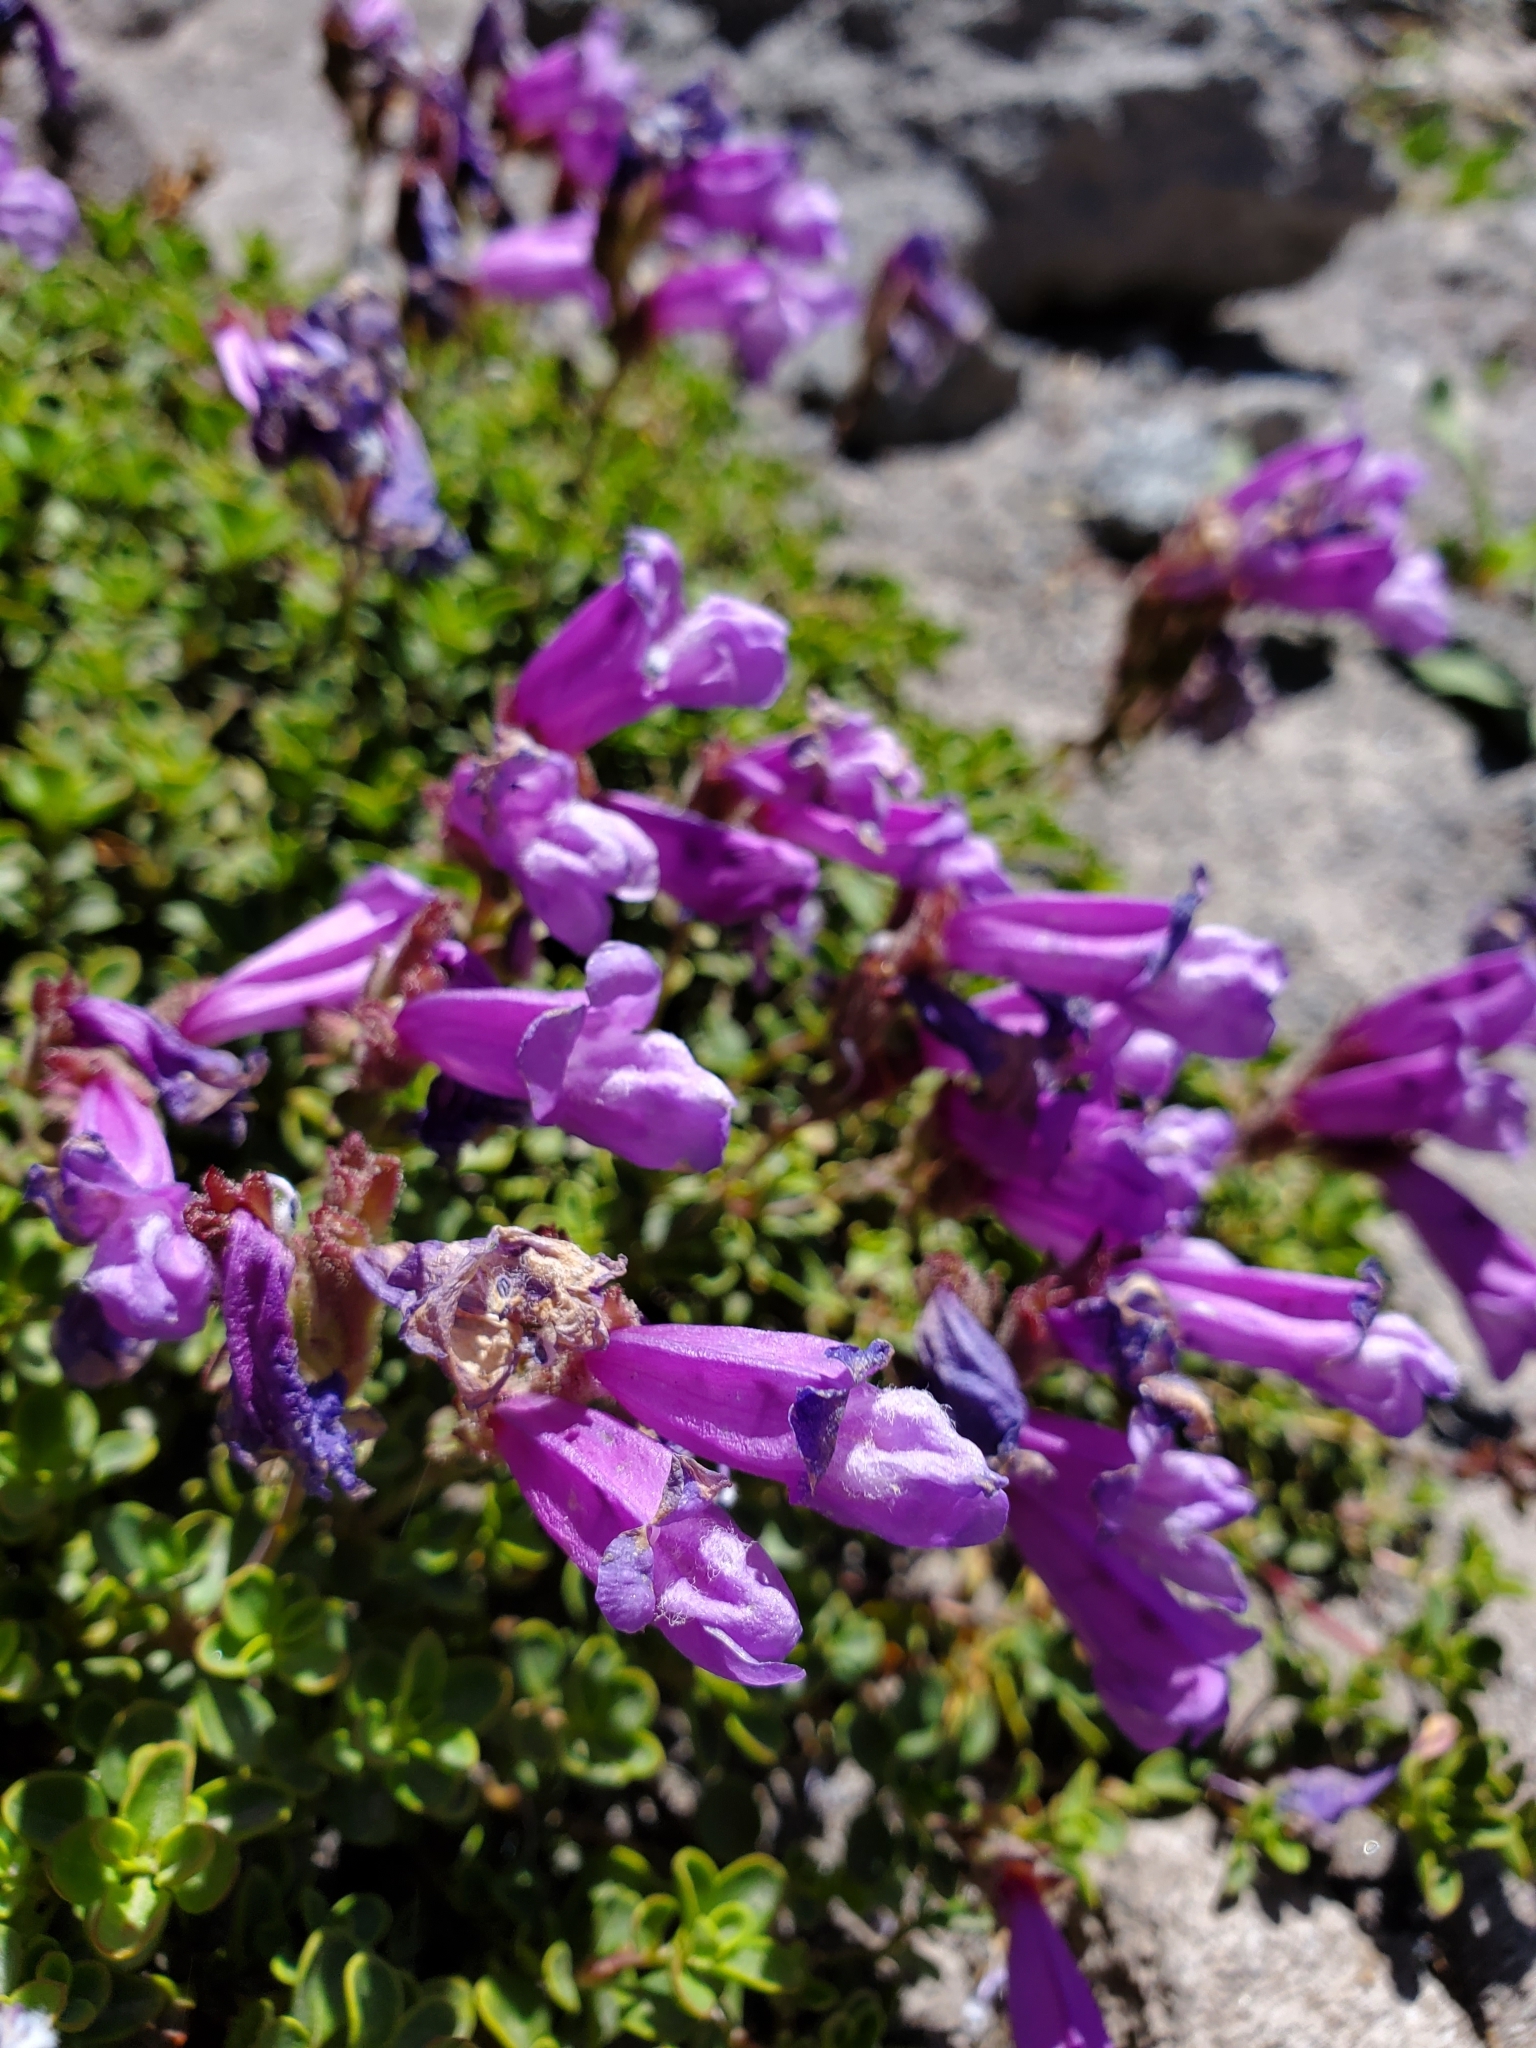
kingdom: Plantae
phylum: Tracheophyta
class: Magnoliopsida
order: Lamiales
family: Plantaginaceae
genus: Penstemon
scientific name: Penstemon davidsonii
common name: Davidson's penstemon
